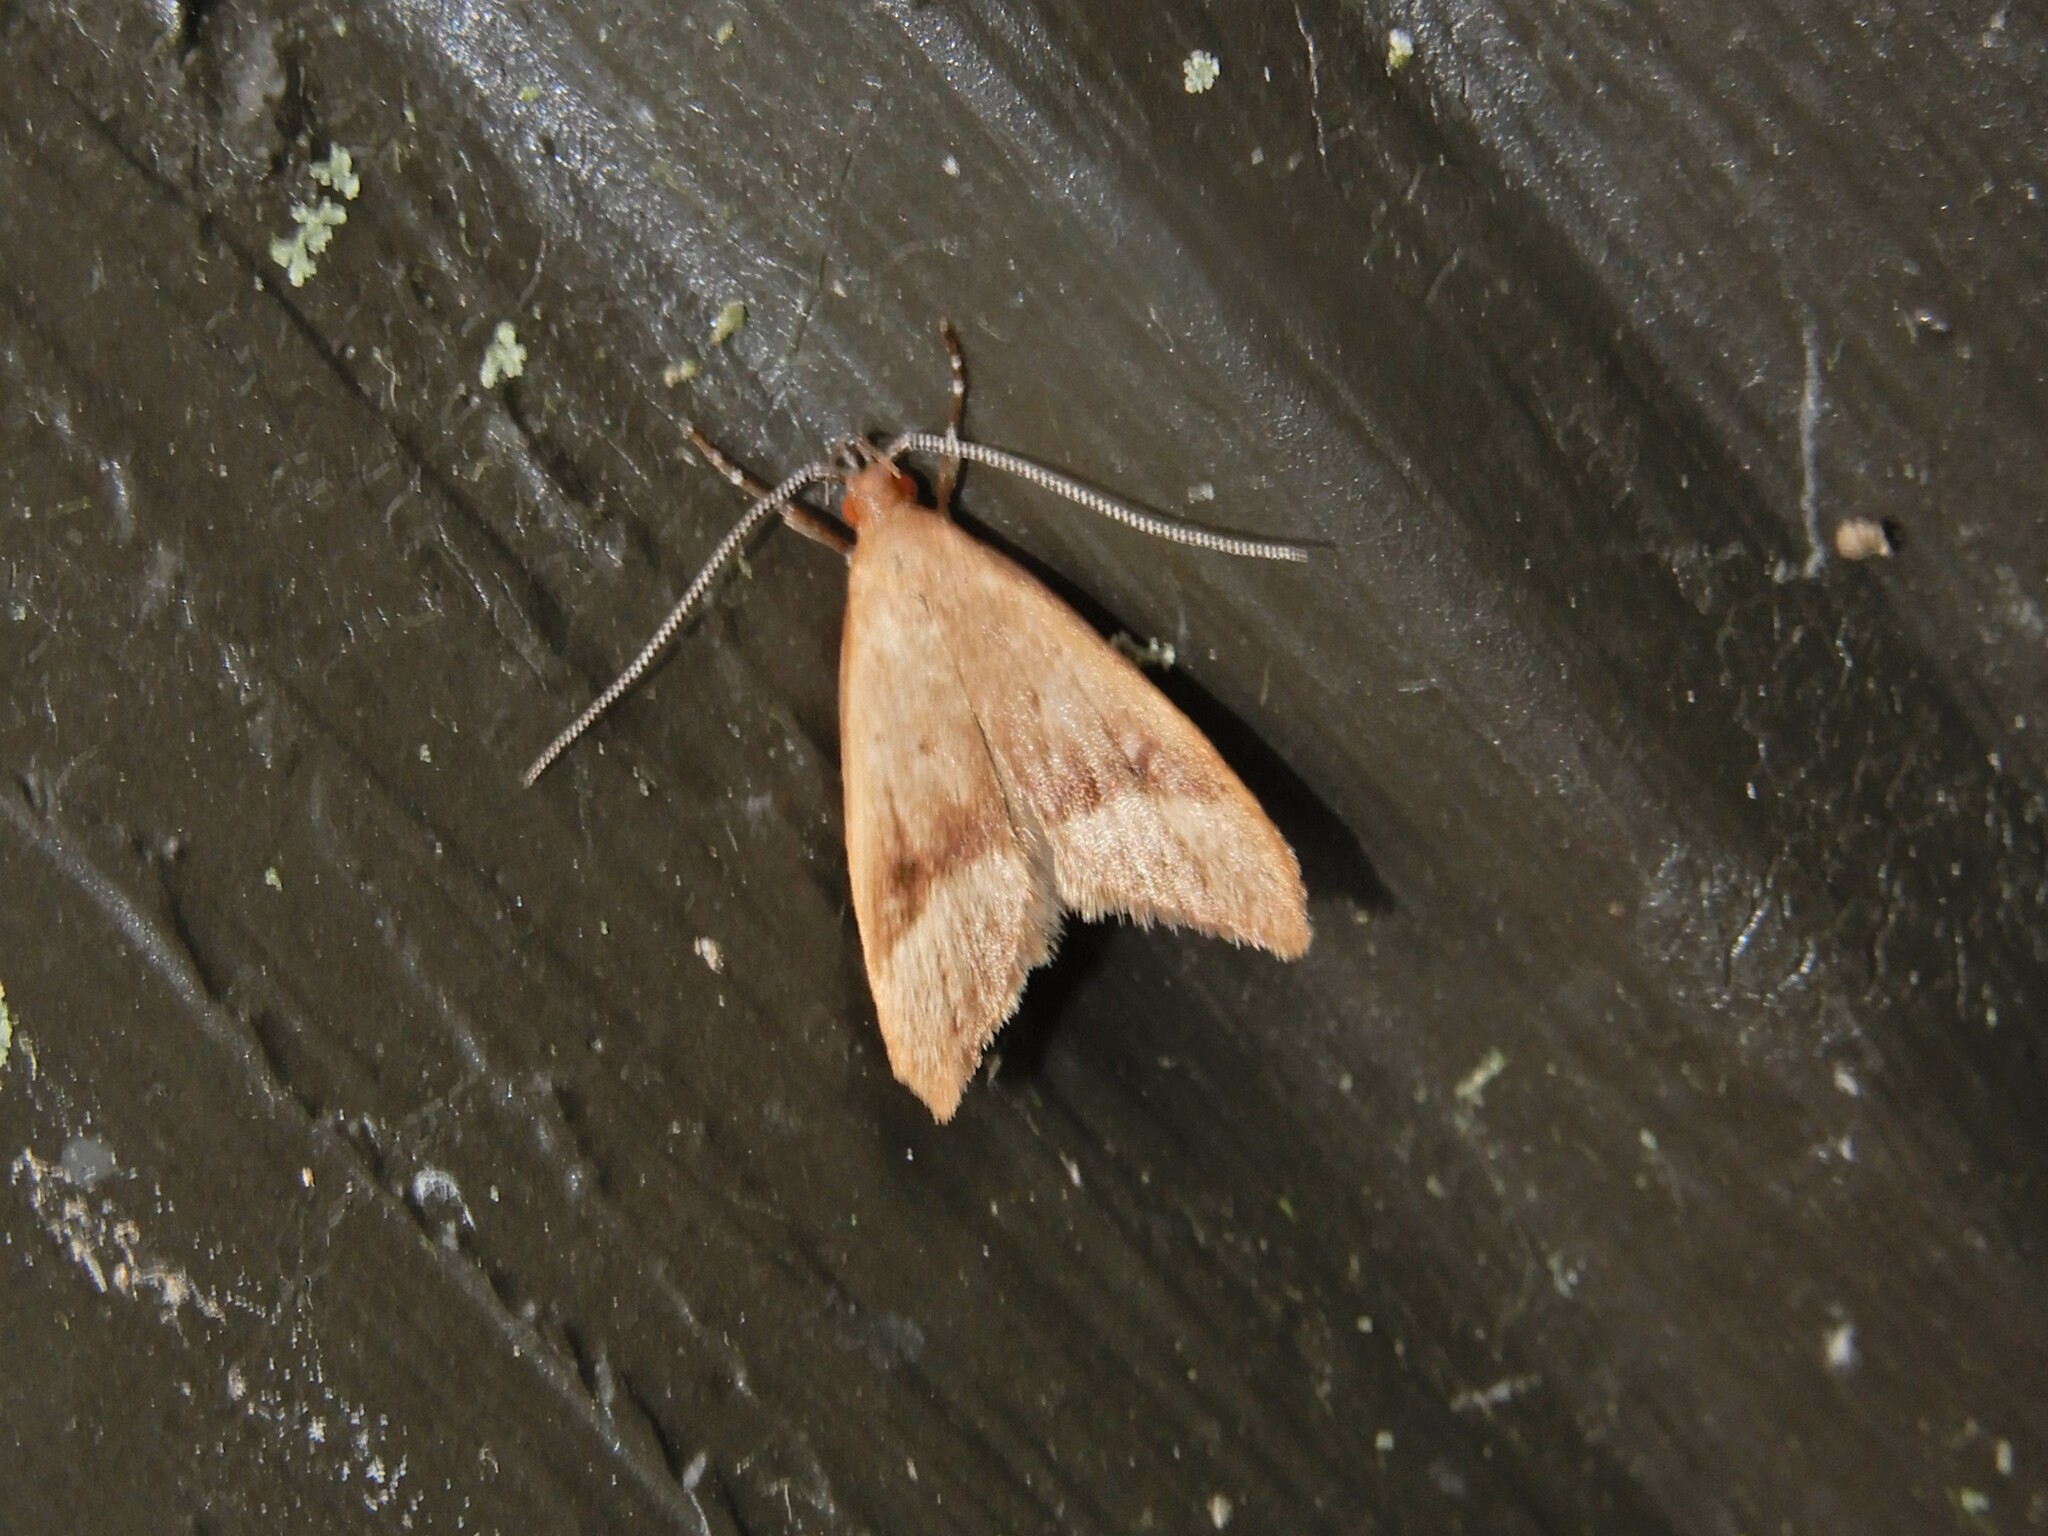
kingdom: Animalia
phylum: Arthropoda
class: Insecta
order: Lepidoptera
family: Oecophoridae
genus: Gymnobathra
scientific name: Gymnobathra hyetodes
